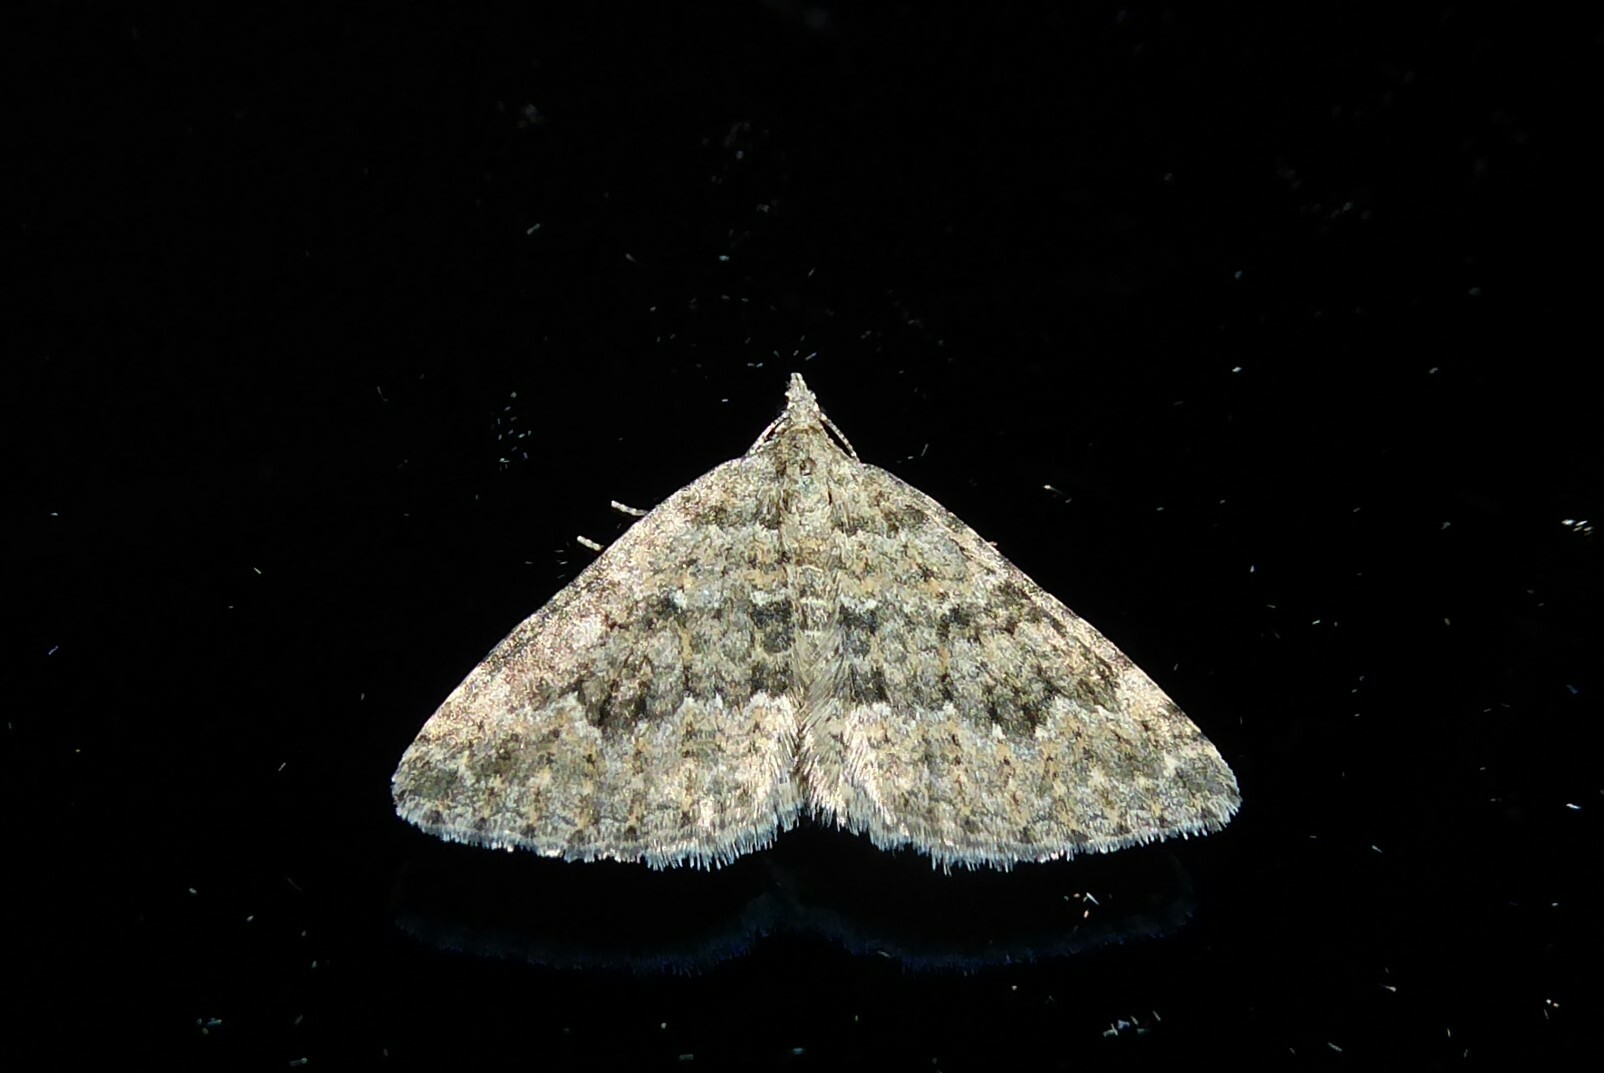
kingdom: Animalia
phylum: Arthropoda
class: Insecta
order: Lepidoptera
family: Geometridae
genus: Helastia
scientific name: Helastia corcularia
